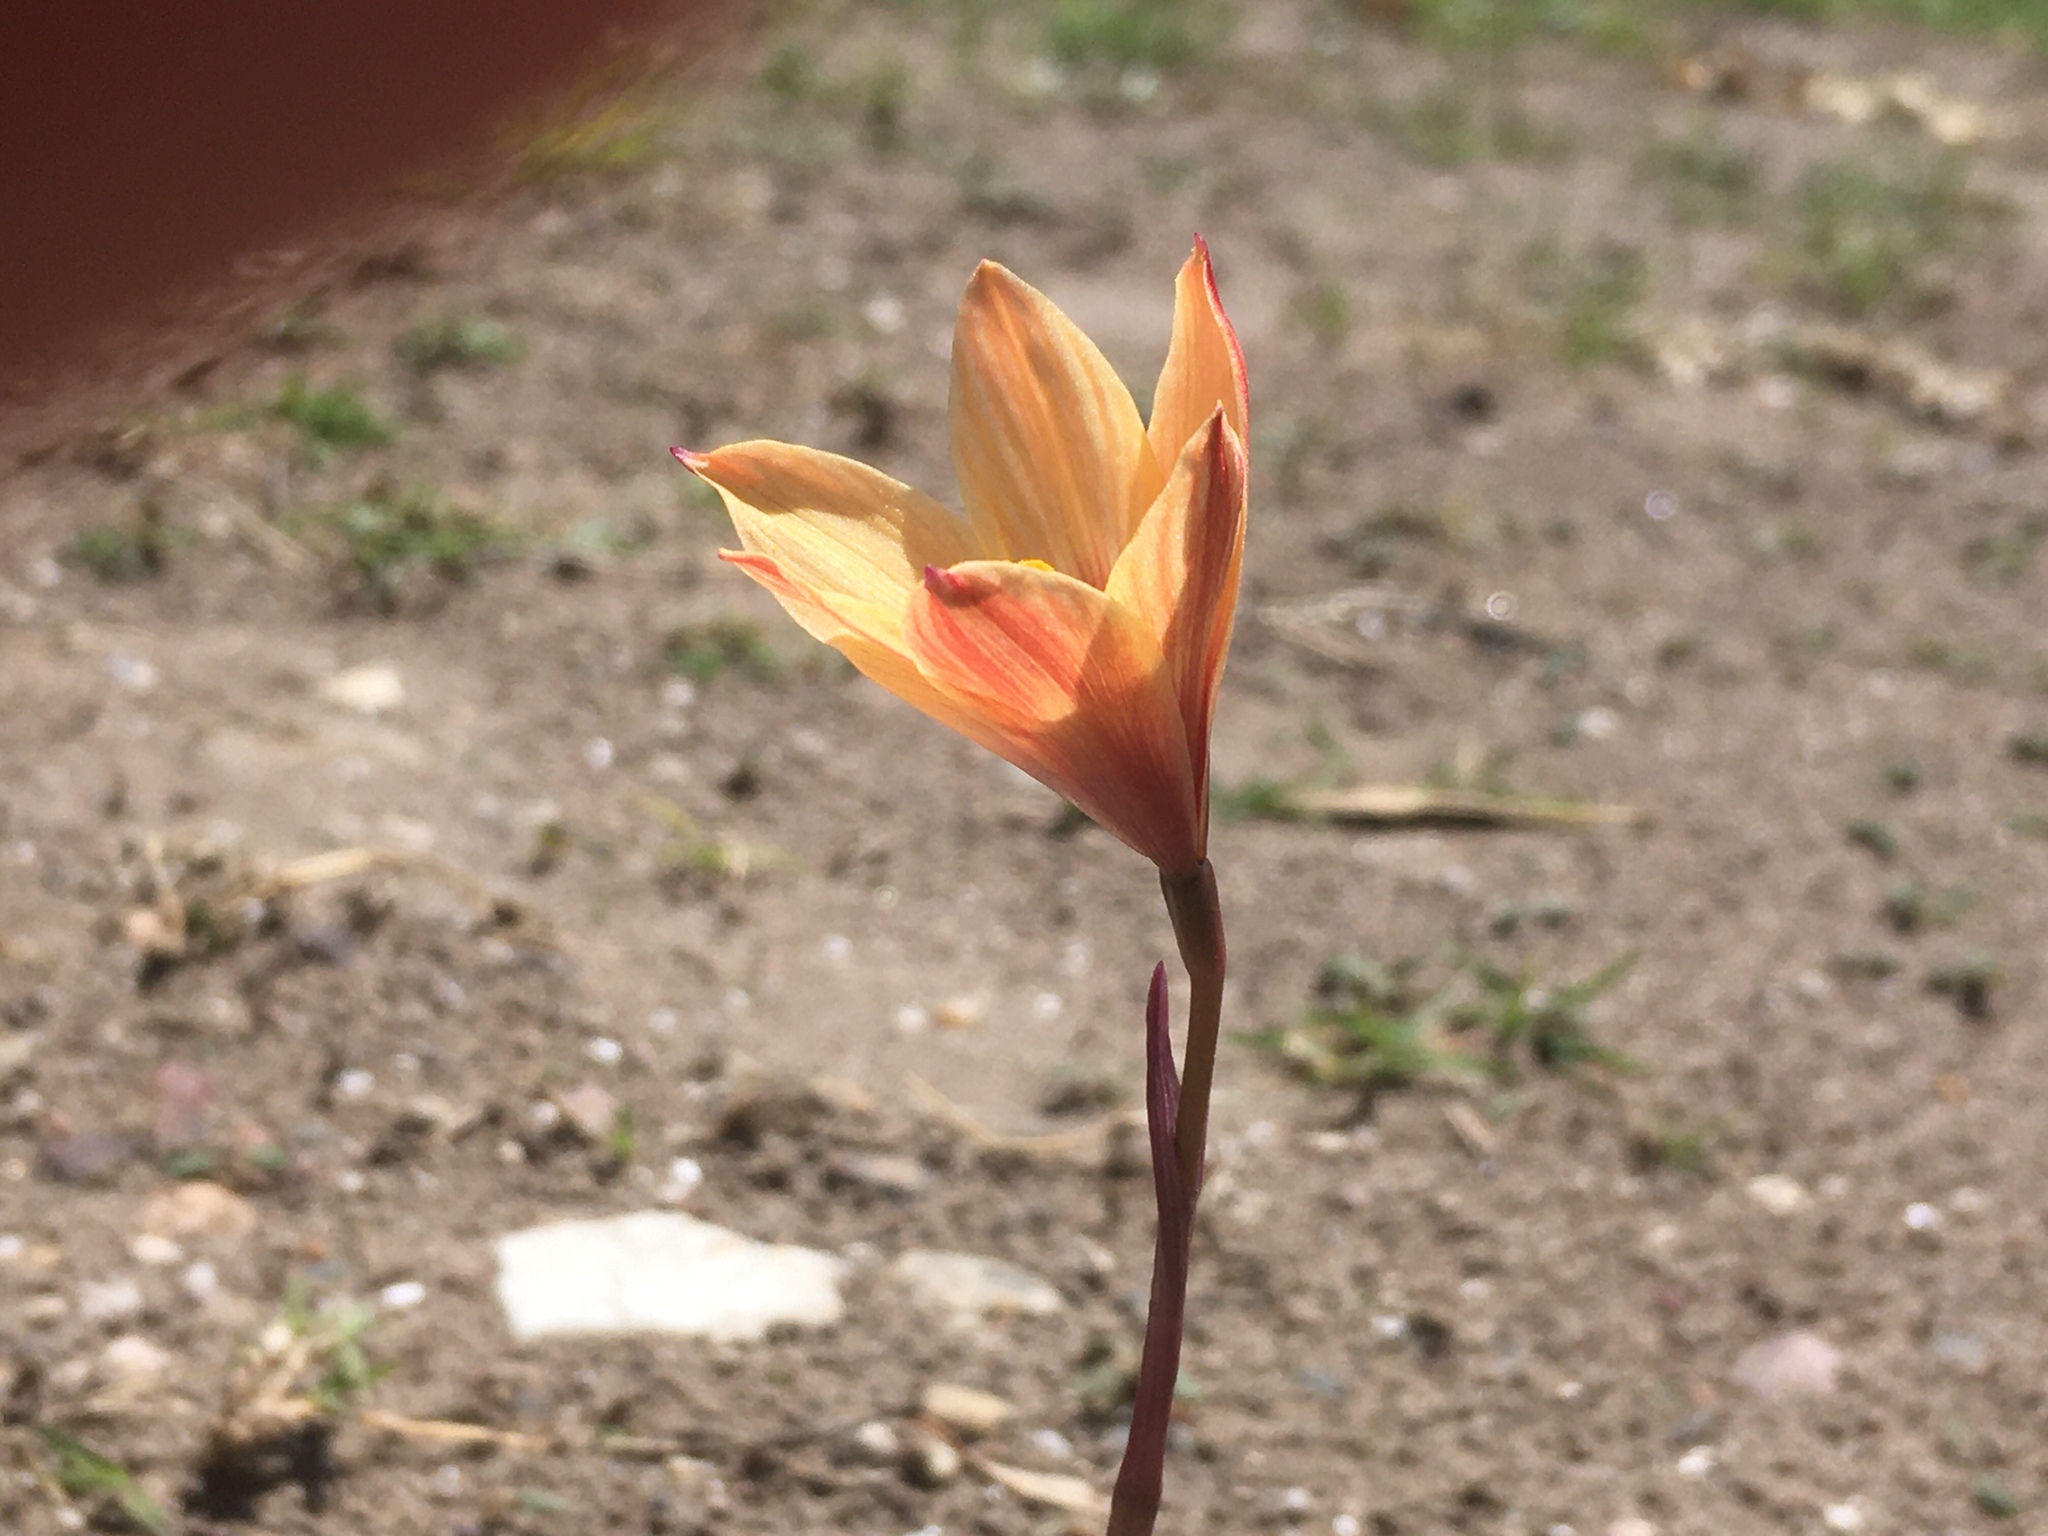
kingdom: Plantae
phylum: Tracheophyta
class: Liliopsida
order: Asparagales
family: Amaryllidaceae
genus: Zephyranthes
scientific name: Zephyranthes tubispatha
